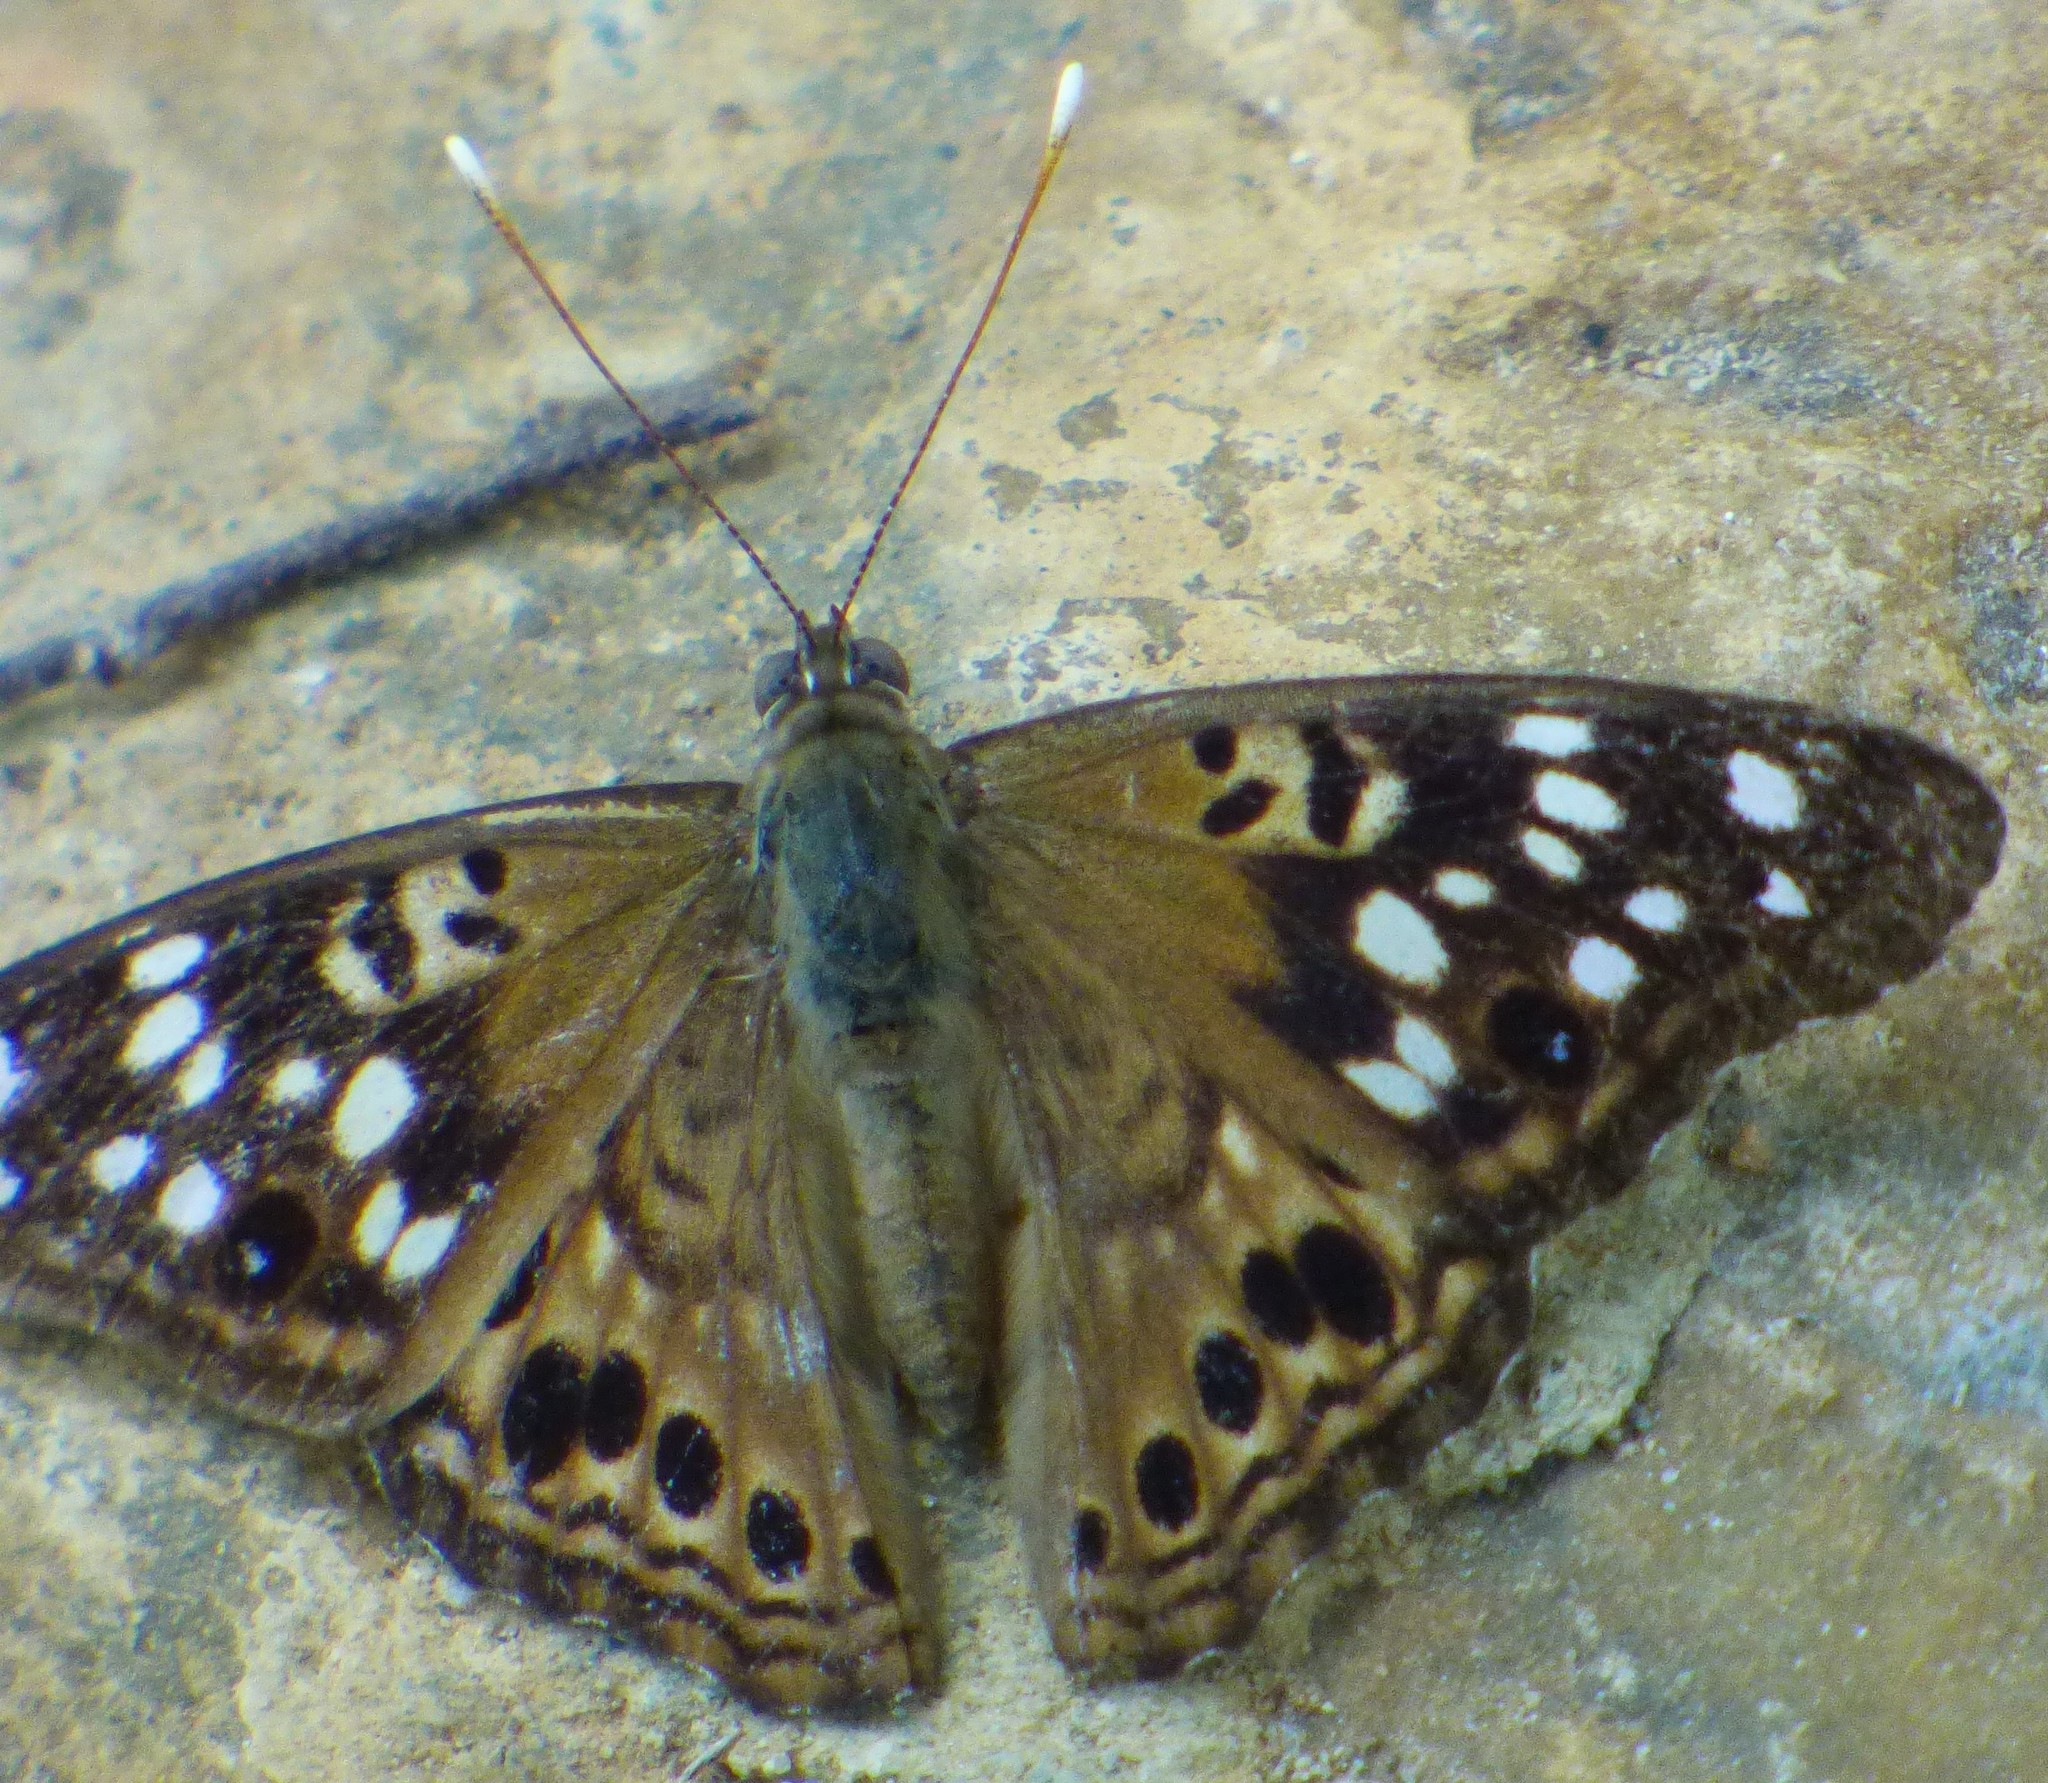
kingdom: Animalia
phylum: Arthropoda
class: Insecta
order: Lepidoptera
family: Nymphalidae
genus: Asterocampa
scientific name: Asterocampa celtis
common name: Hackberry emperor
